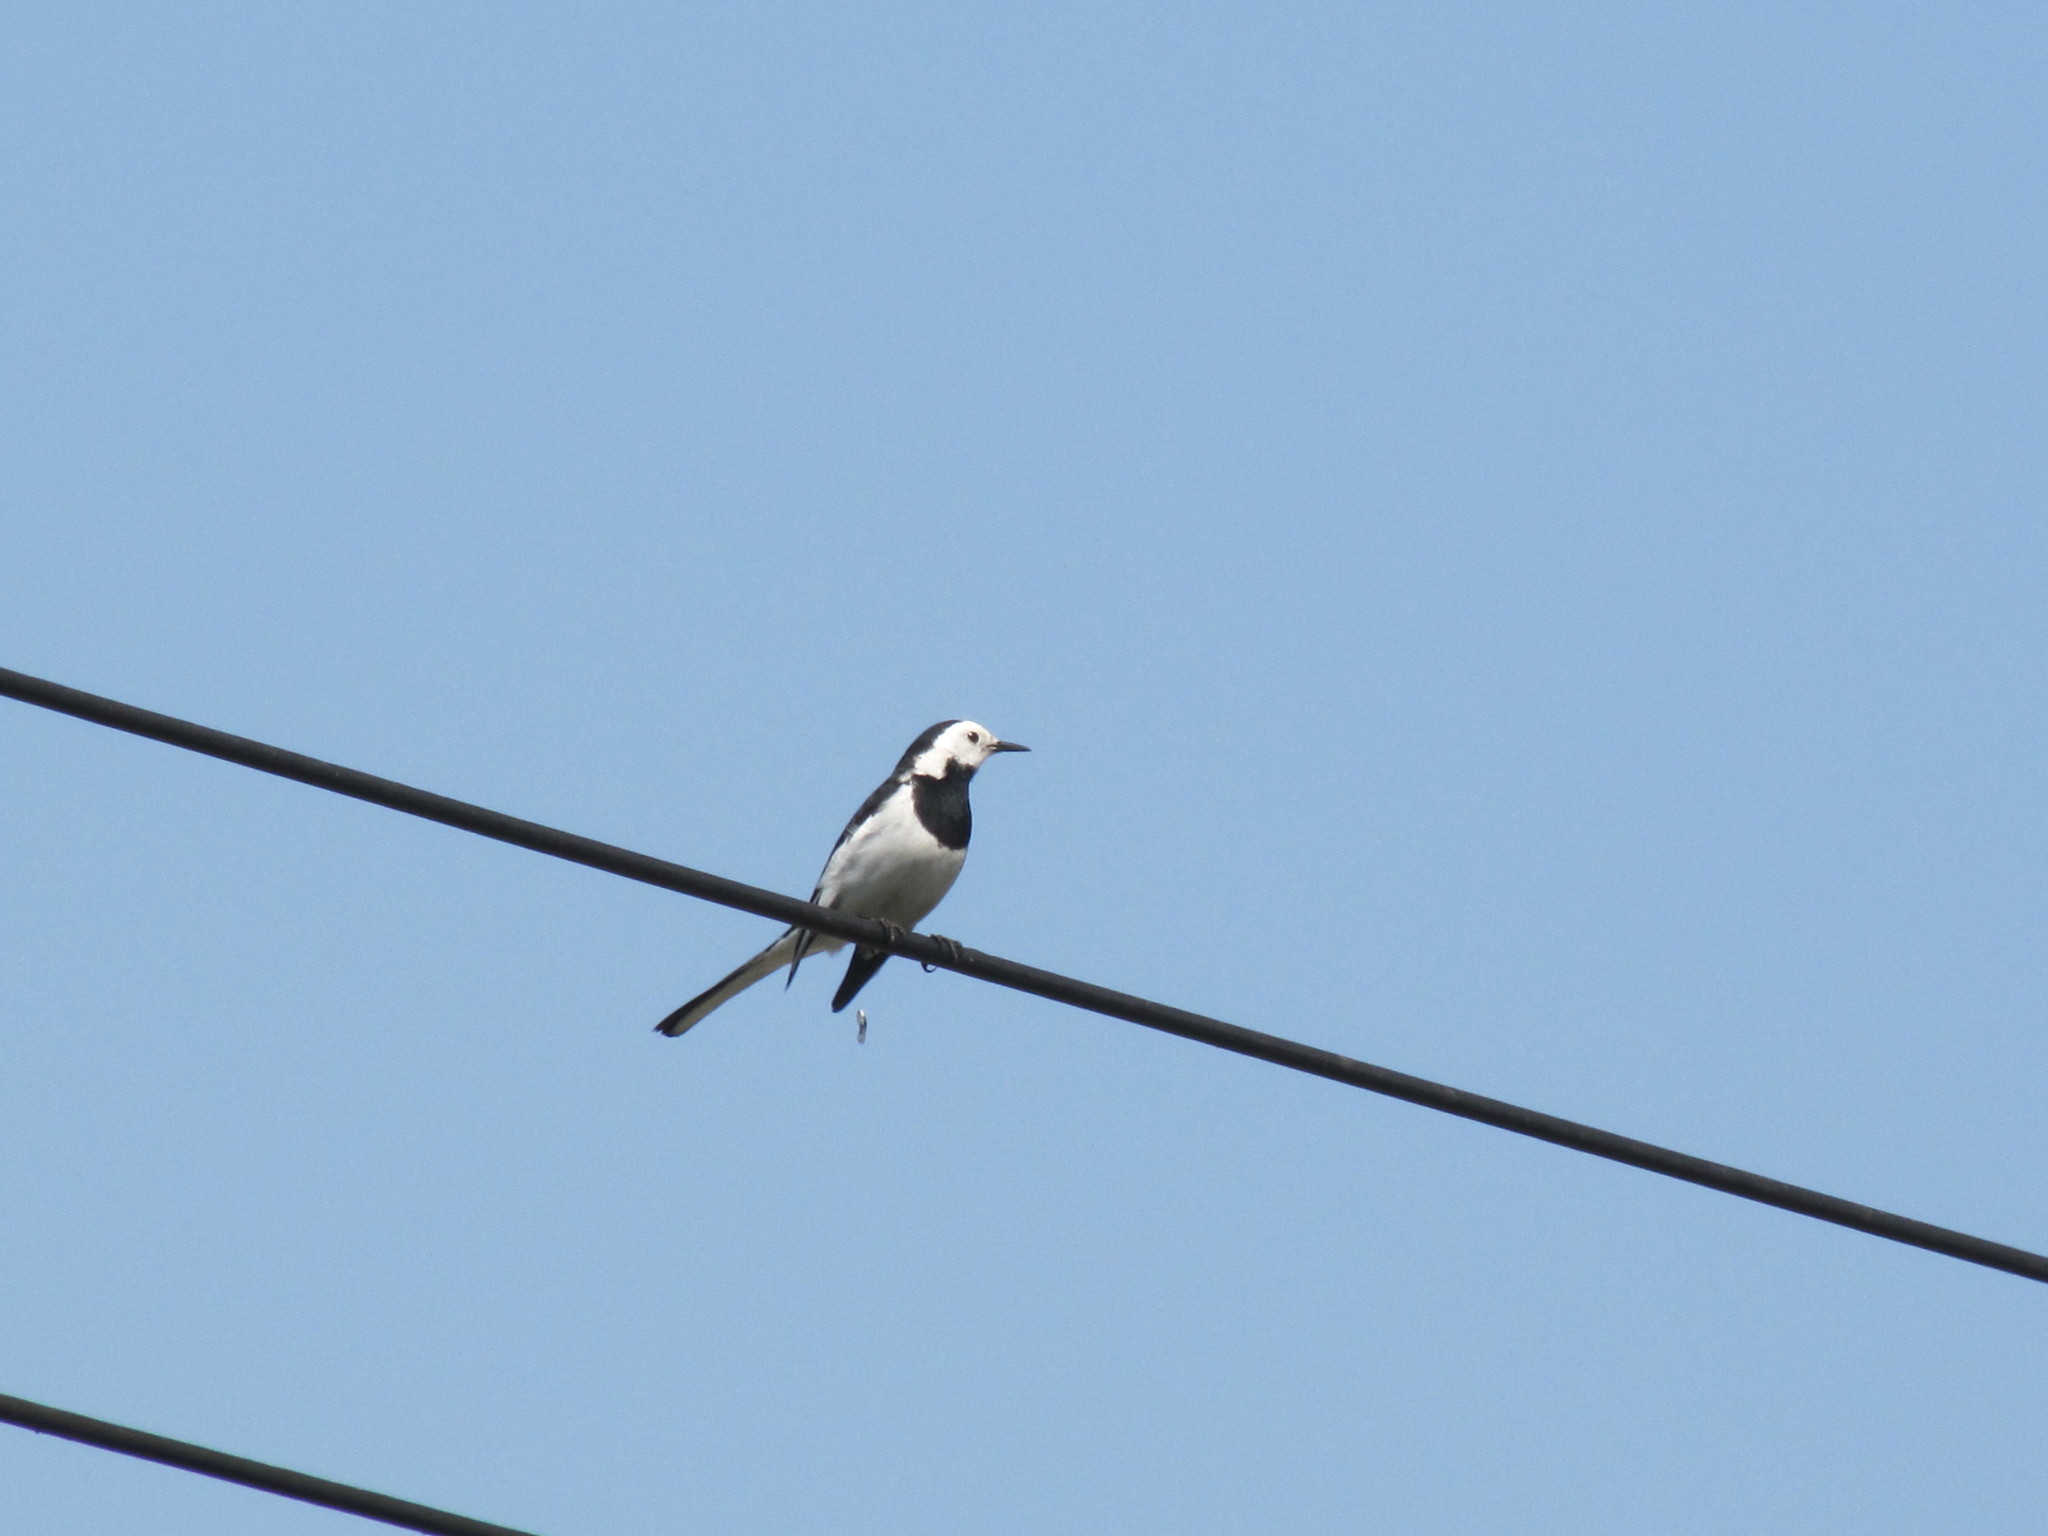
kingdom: Animalia
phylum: Chordata
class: Aves
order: Passeriformes
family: Motacillidae
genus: Motacilla
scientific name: Motacilla alba
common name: White wagtail
